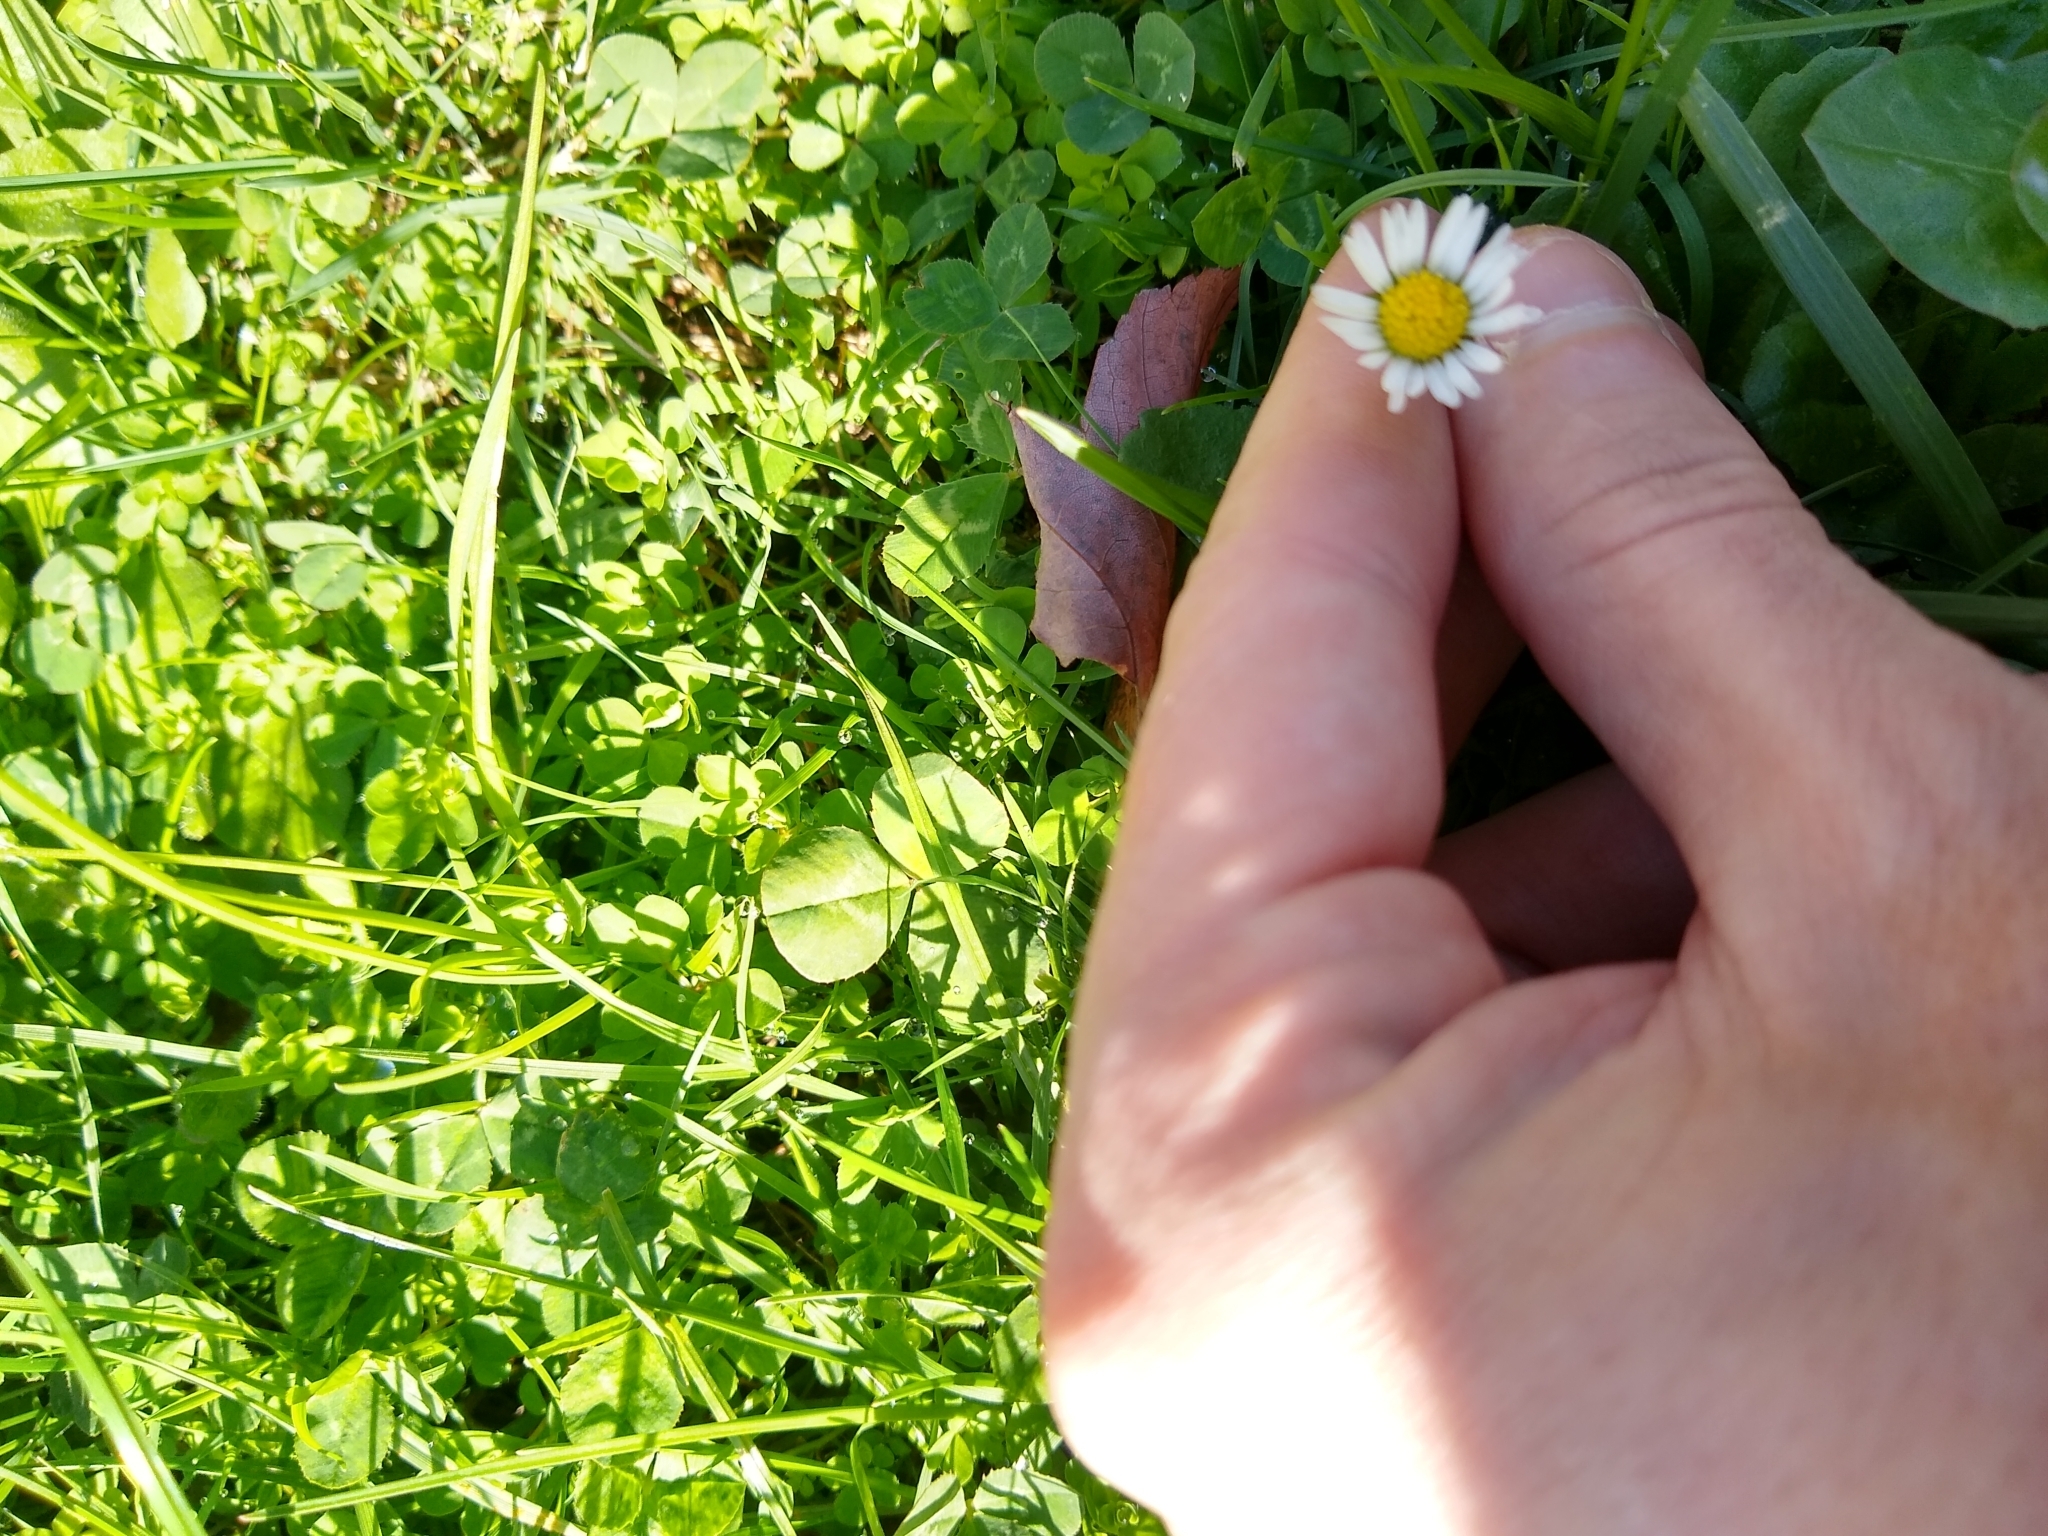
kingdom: Plantae
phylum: Tracheophyta
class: Magnoliopsida
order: Asterales
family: Asteraceae
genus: Bellis
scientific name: Bellis perennis
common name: Lawndaisy
